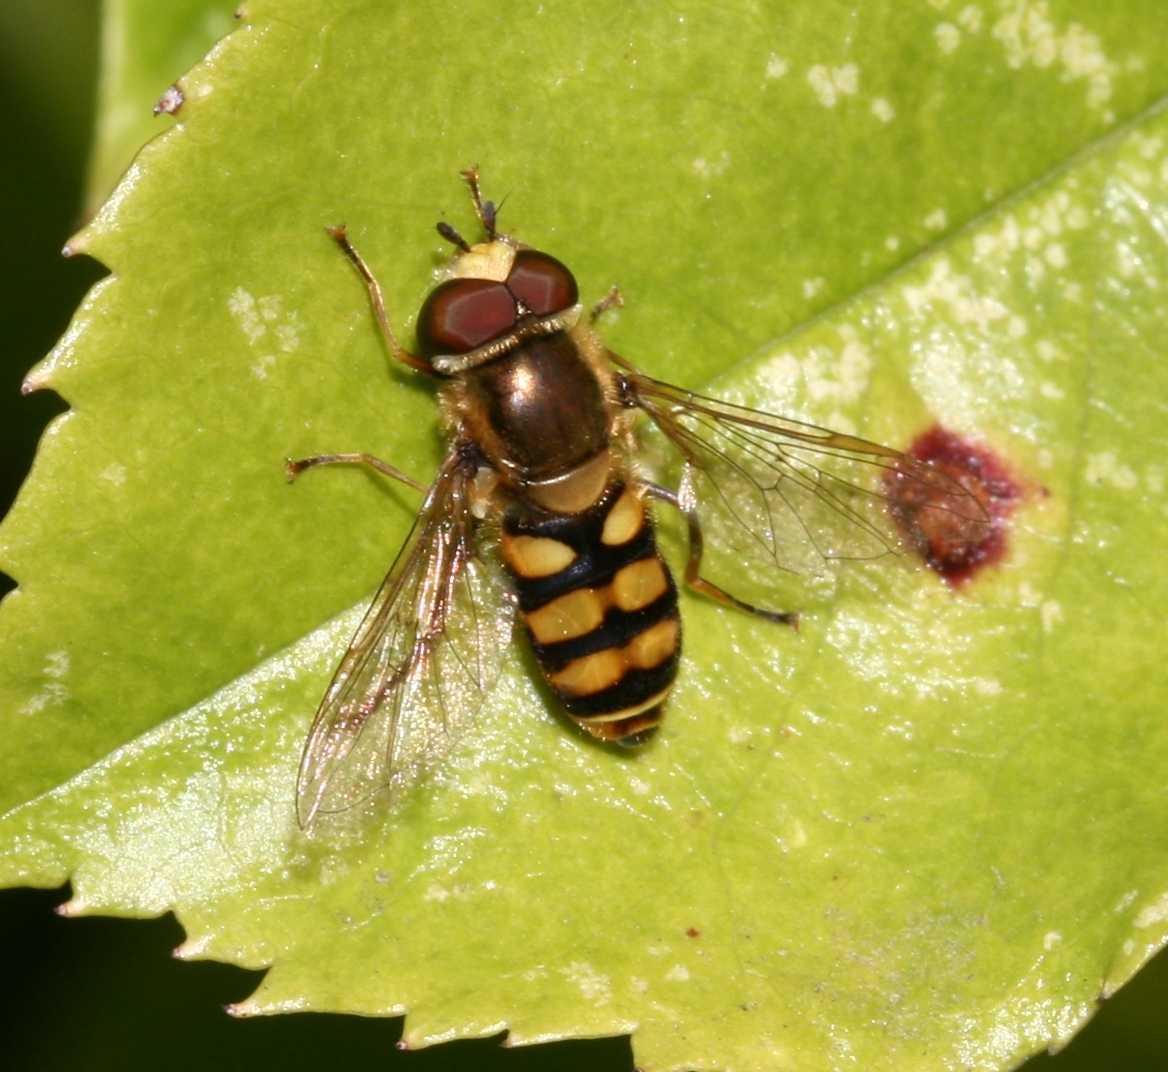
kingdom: Animalia
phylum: Arthropoda
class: Insecta
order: Diptera
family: Syrphidae
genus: Eupeodes
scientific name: Eupeodes corollae
